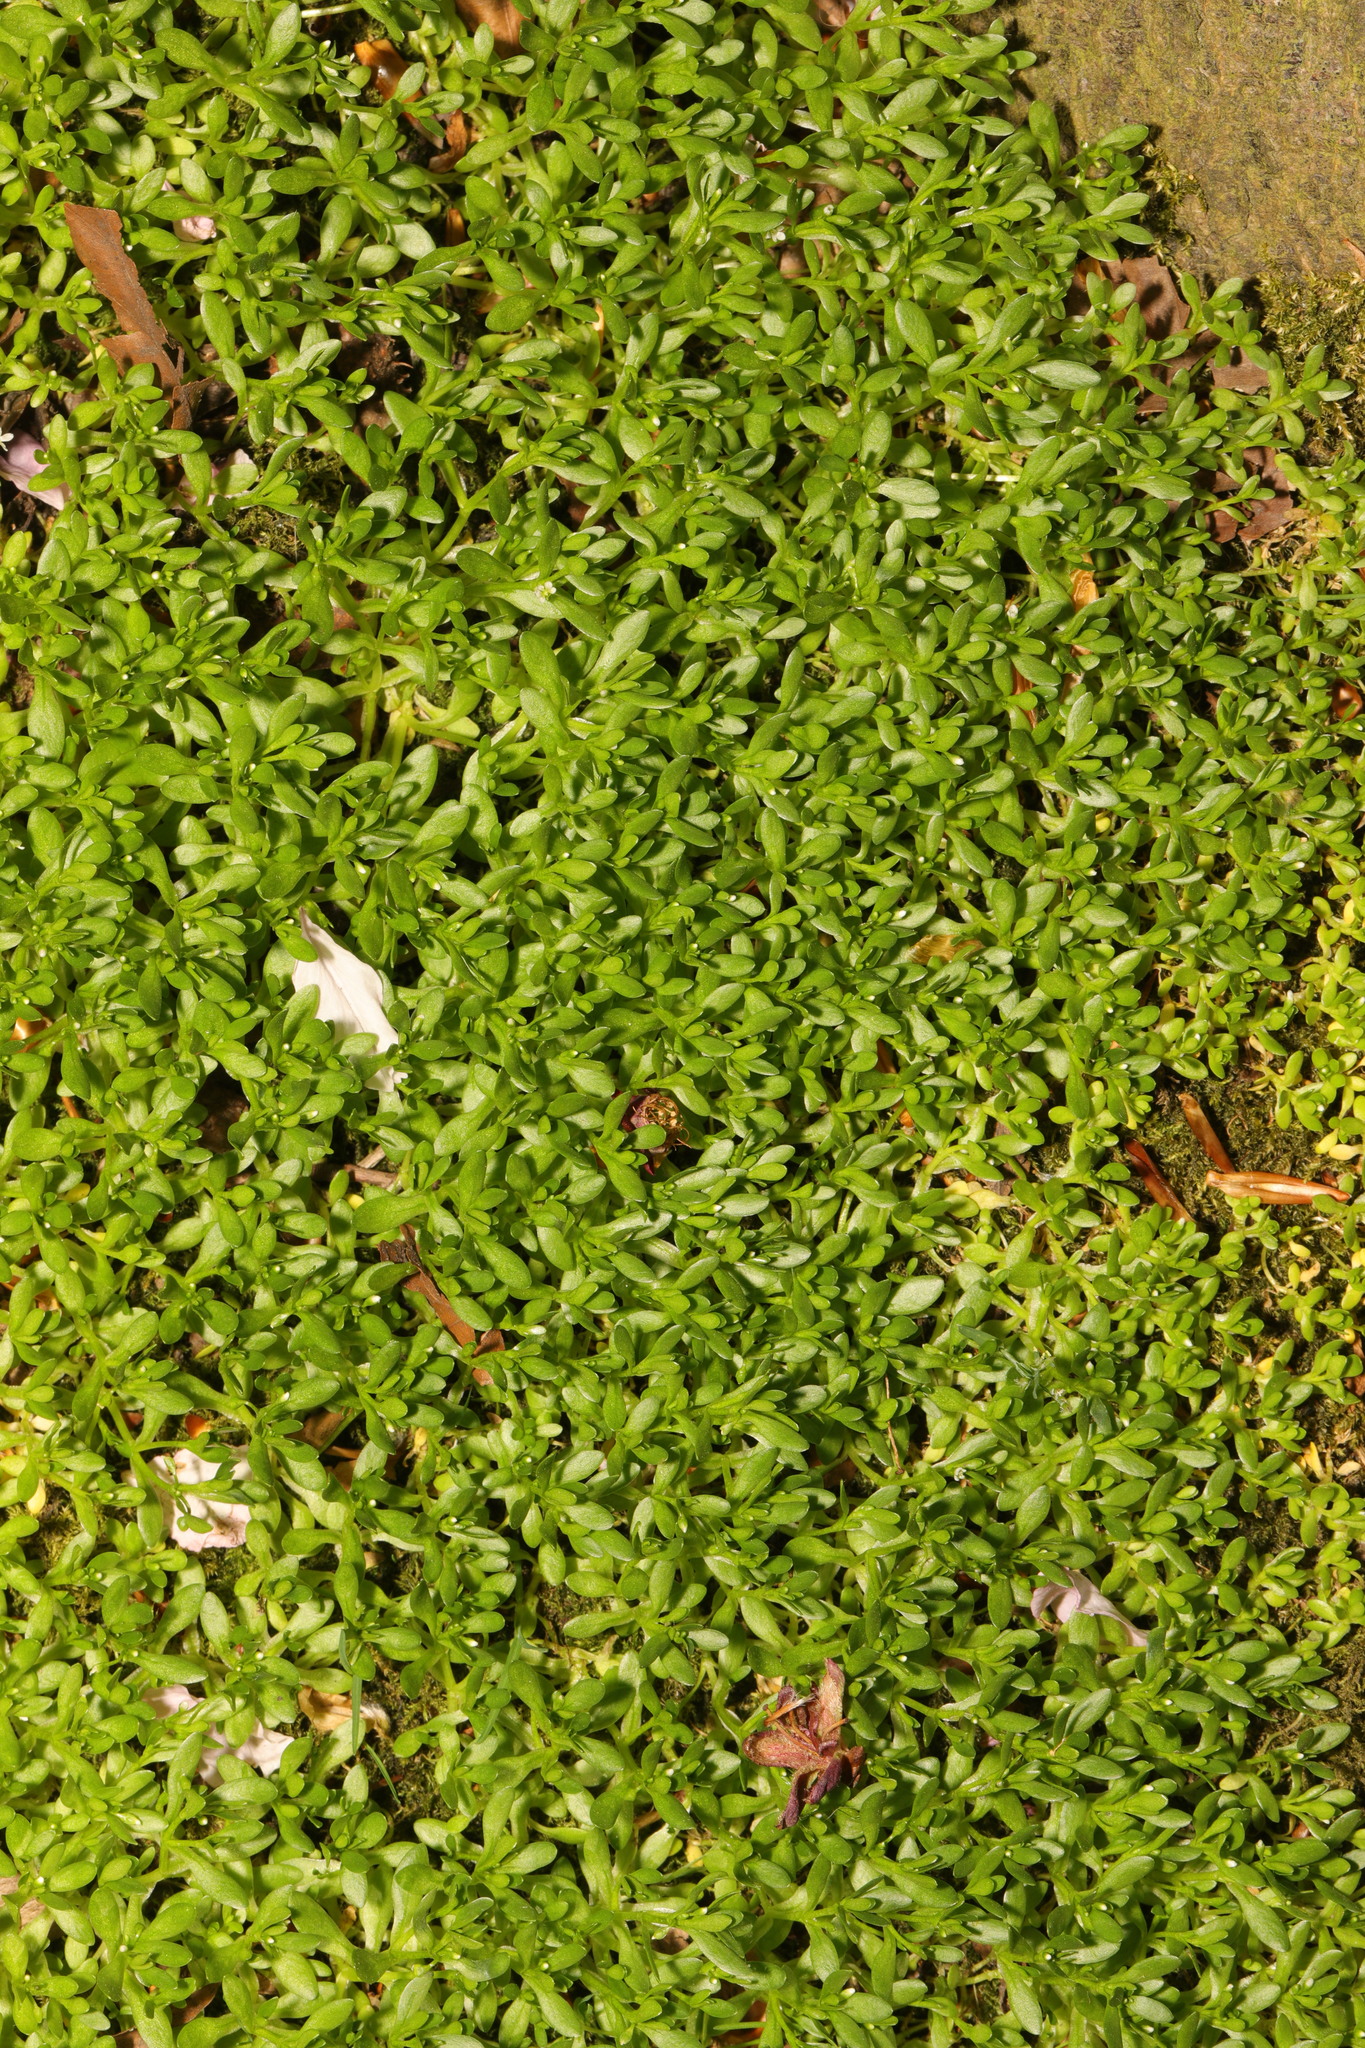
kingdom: Plantae
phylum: Tracheophyta
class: Magnoliopsida
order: Caryophyllales
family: Montiaceae
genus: Montia
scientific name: Montia fontana
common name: Blinks
